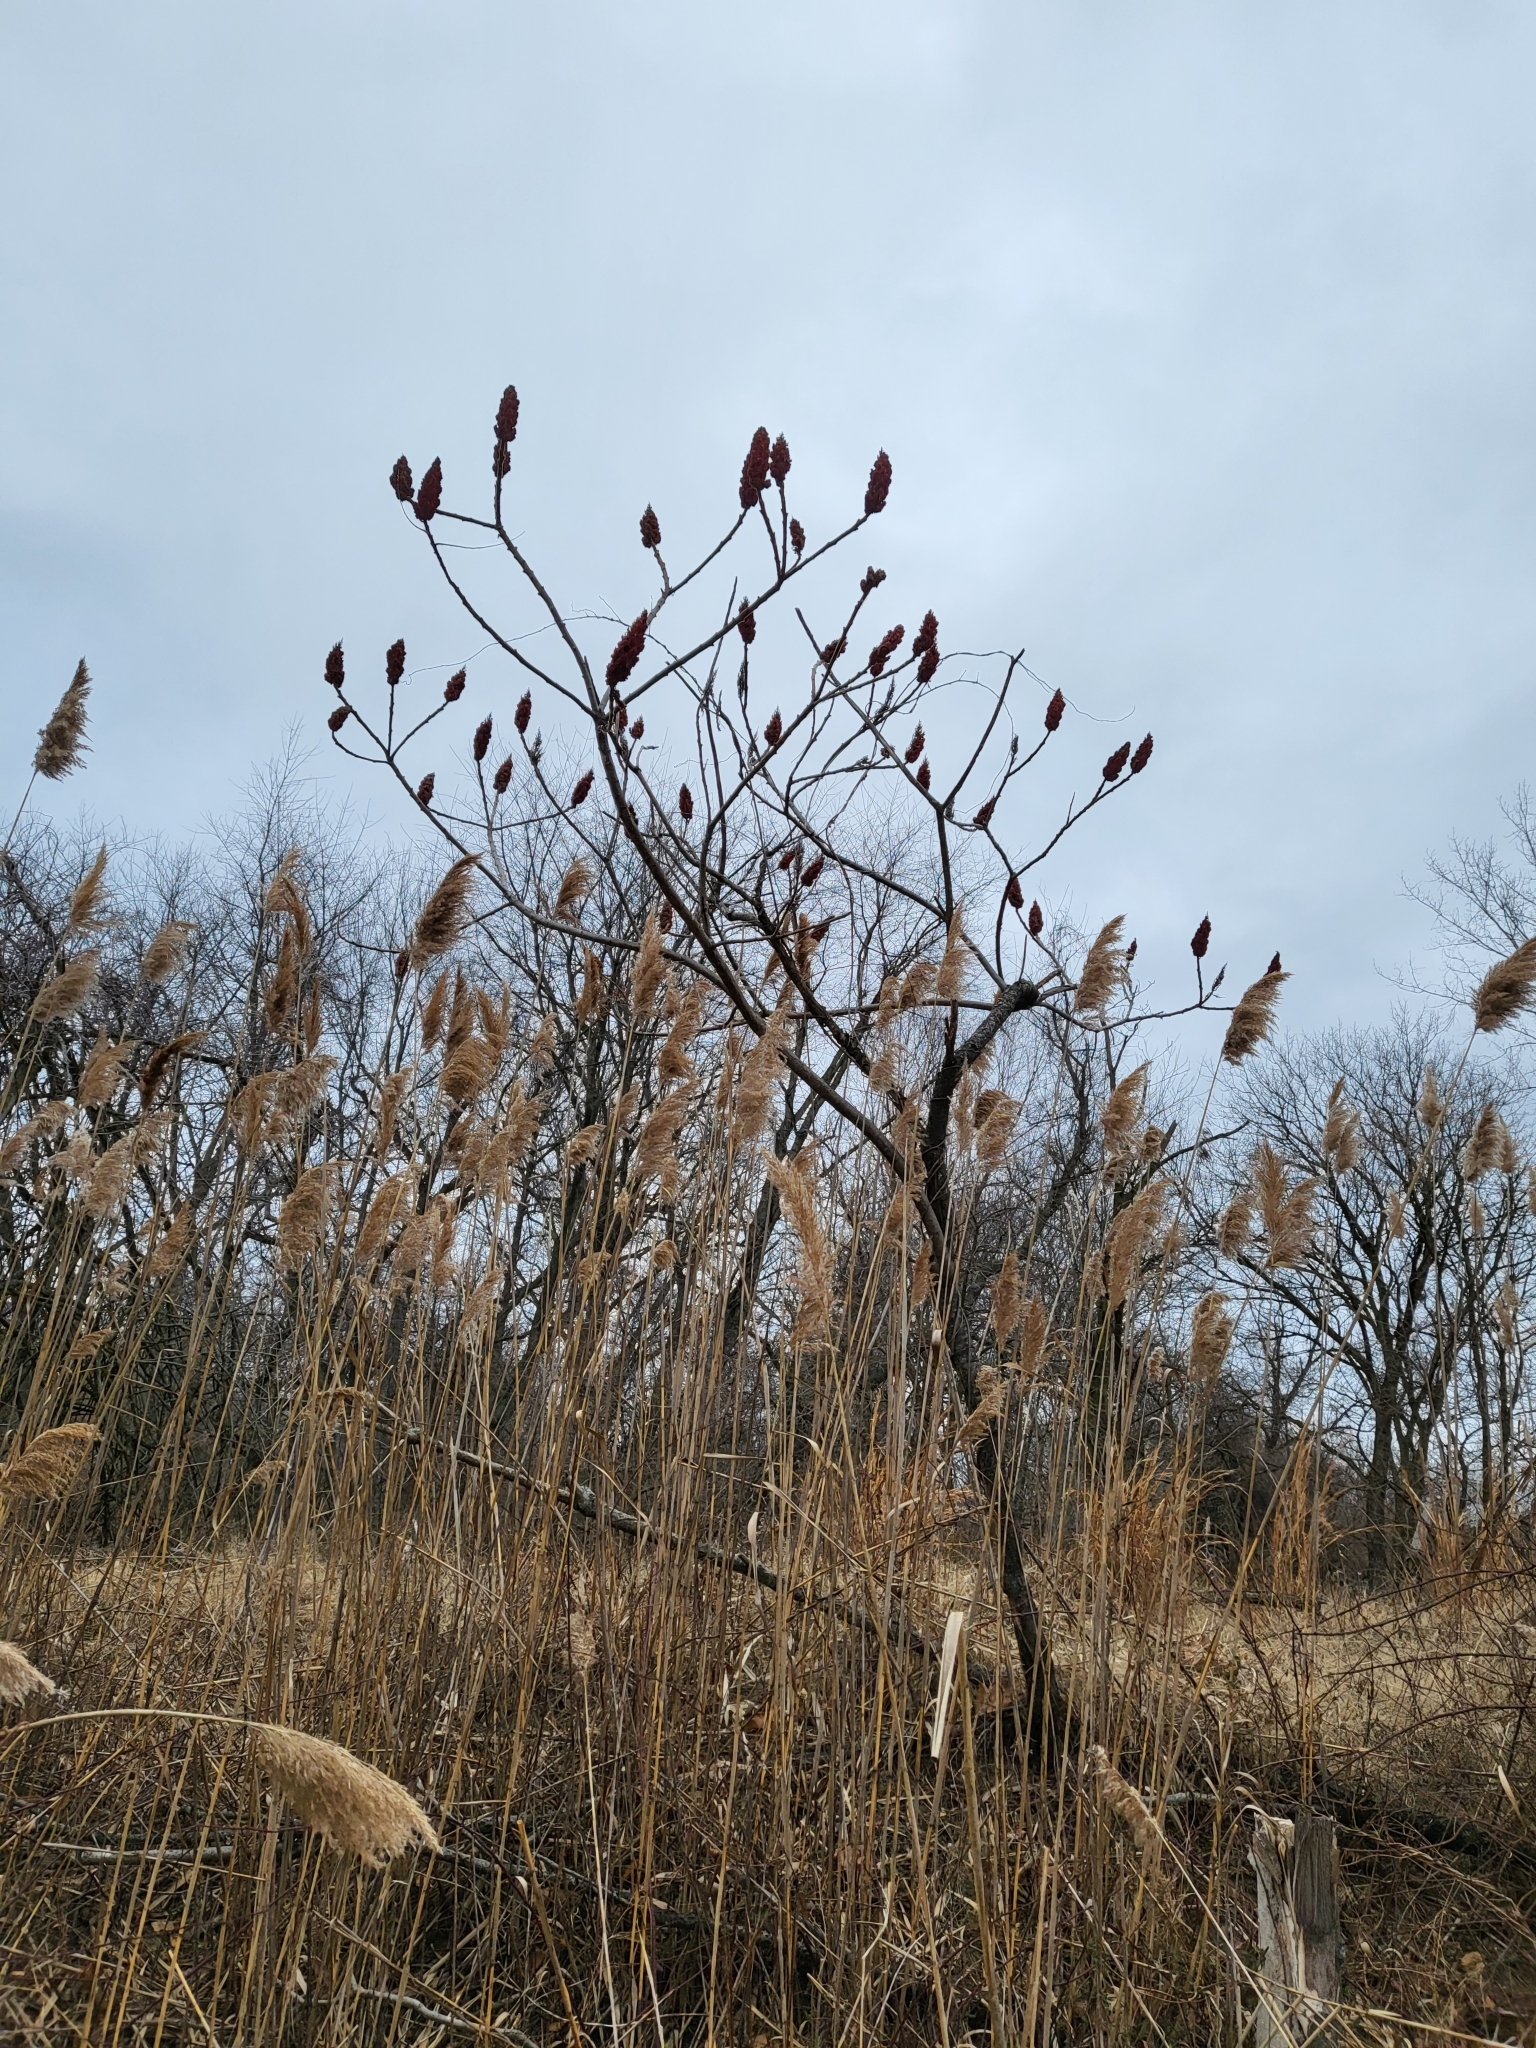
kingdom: Plantae
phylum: Tracheophyta
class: Magnoliopsida
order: Sapindales
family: Anacardiaceae
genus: Rhus
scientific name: Rhus typhina
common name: Staghorn sumac
